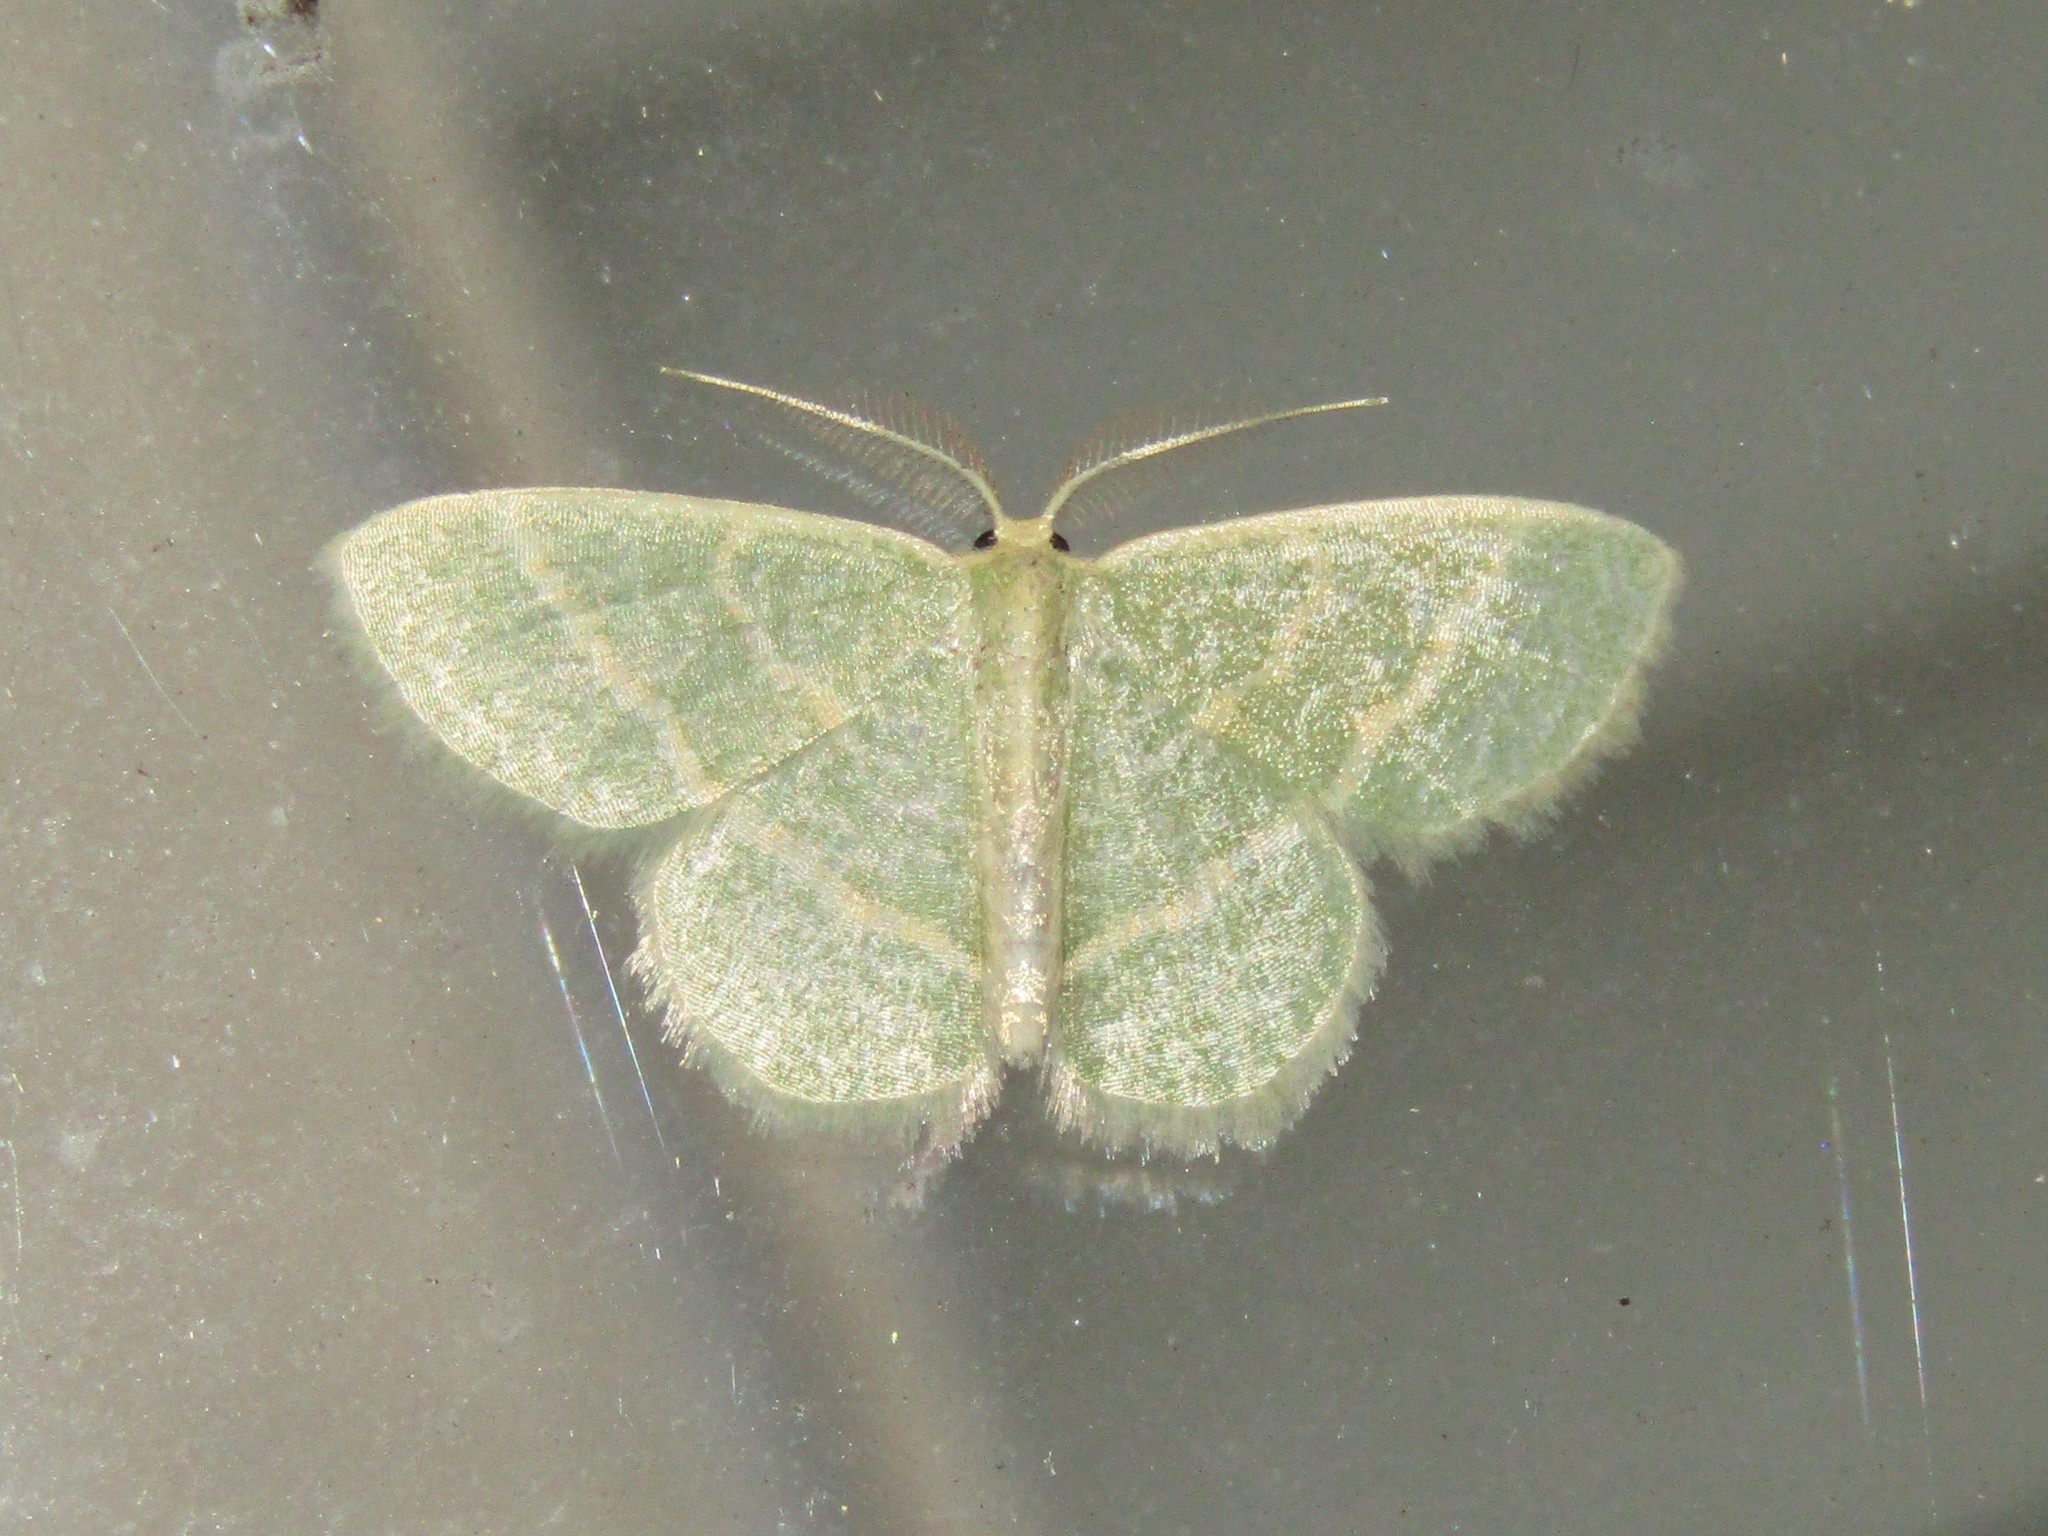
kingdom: Animalia
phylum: Arthropoda
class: Insecta
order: Lepidoptera
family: Geometridae
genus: Chlorochlamys
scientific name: Chlorochlamys chloroleucaria
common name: Blackberry looper
